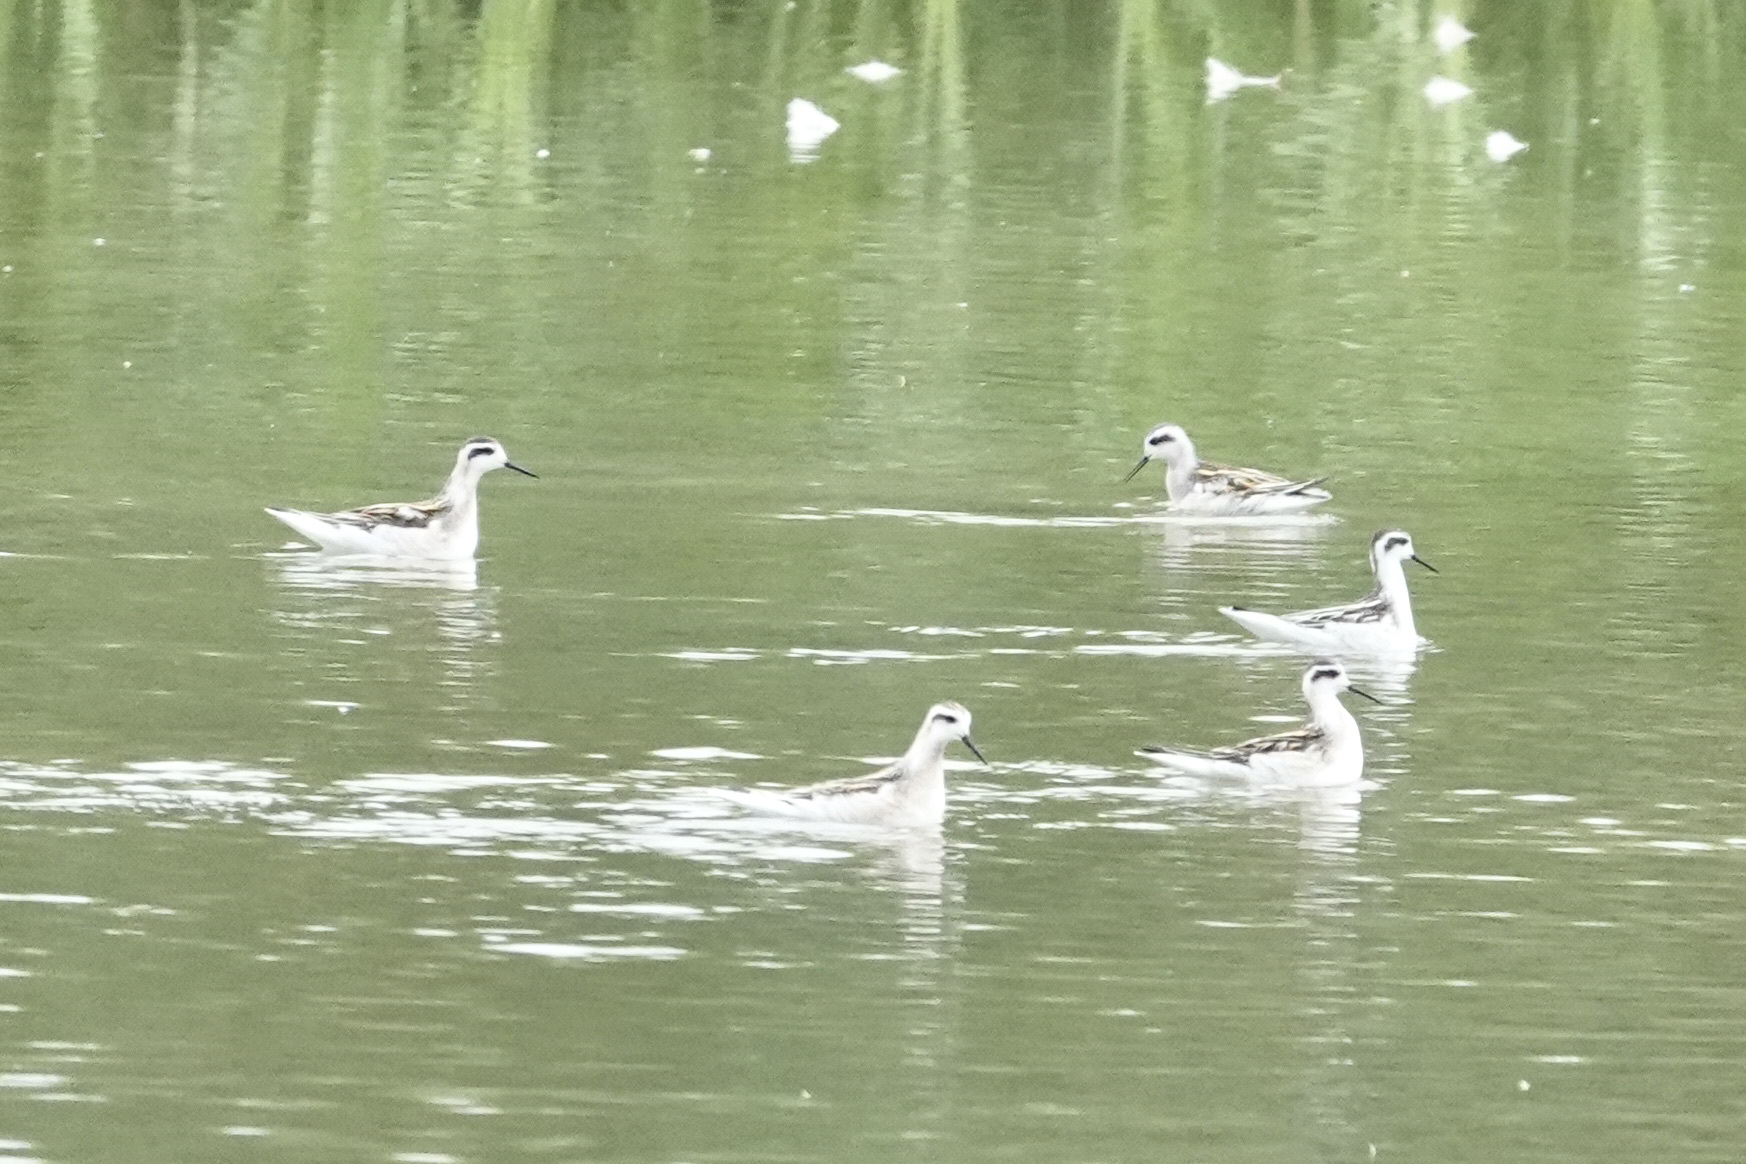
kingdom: Animalia
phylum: Chordata
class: Aves
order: Charadriiformes
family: Scolopacidae
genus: Phalaropus
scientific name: Phalaropus tricolor
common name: Wilson's phalarope
